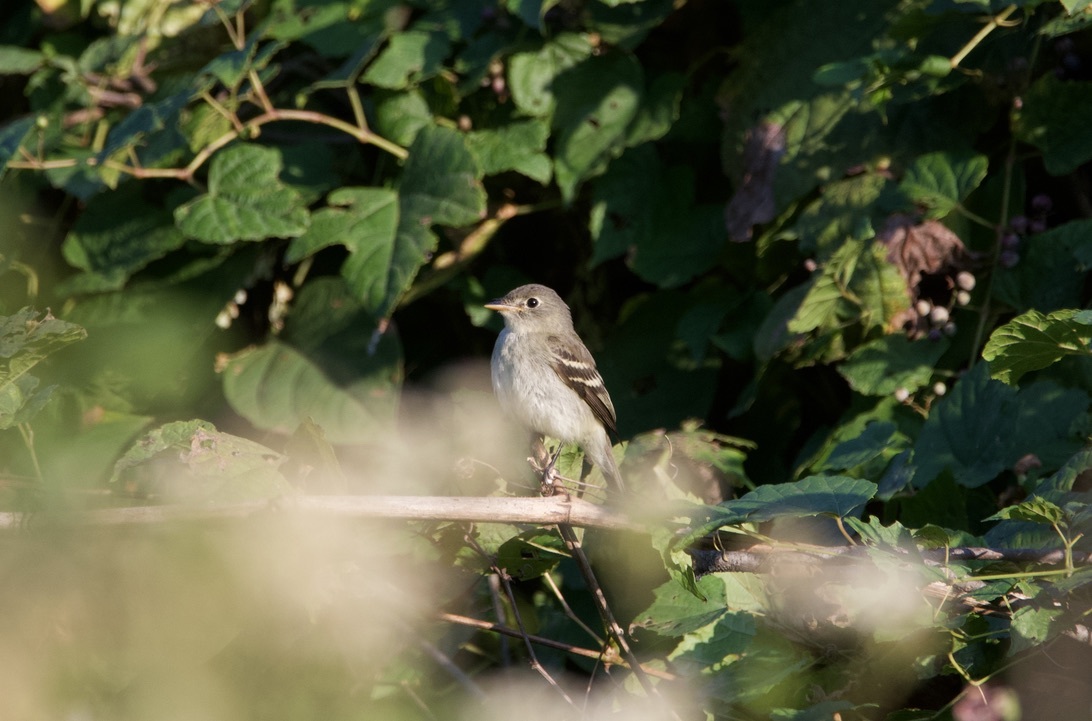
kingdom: Animalia
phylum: Chordata
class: Aves
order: Passeriformes
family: Tyrannidae
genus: Empidonax
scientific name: Empidonax minimus
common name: Least flycatcher
